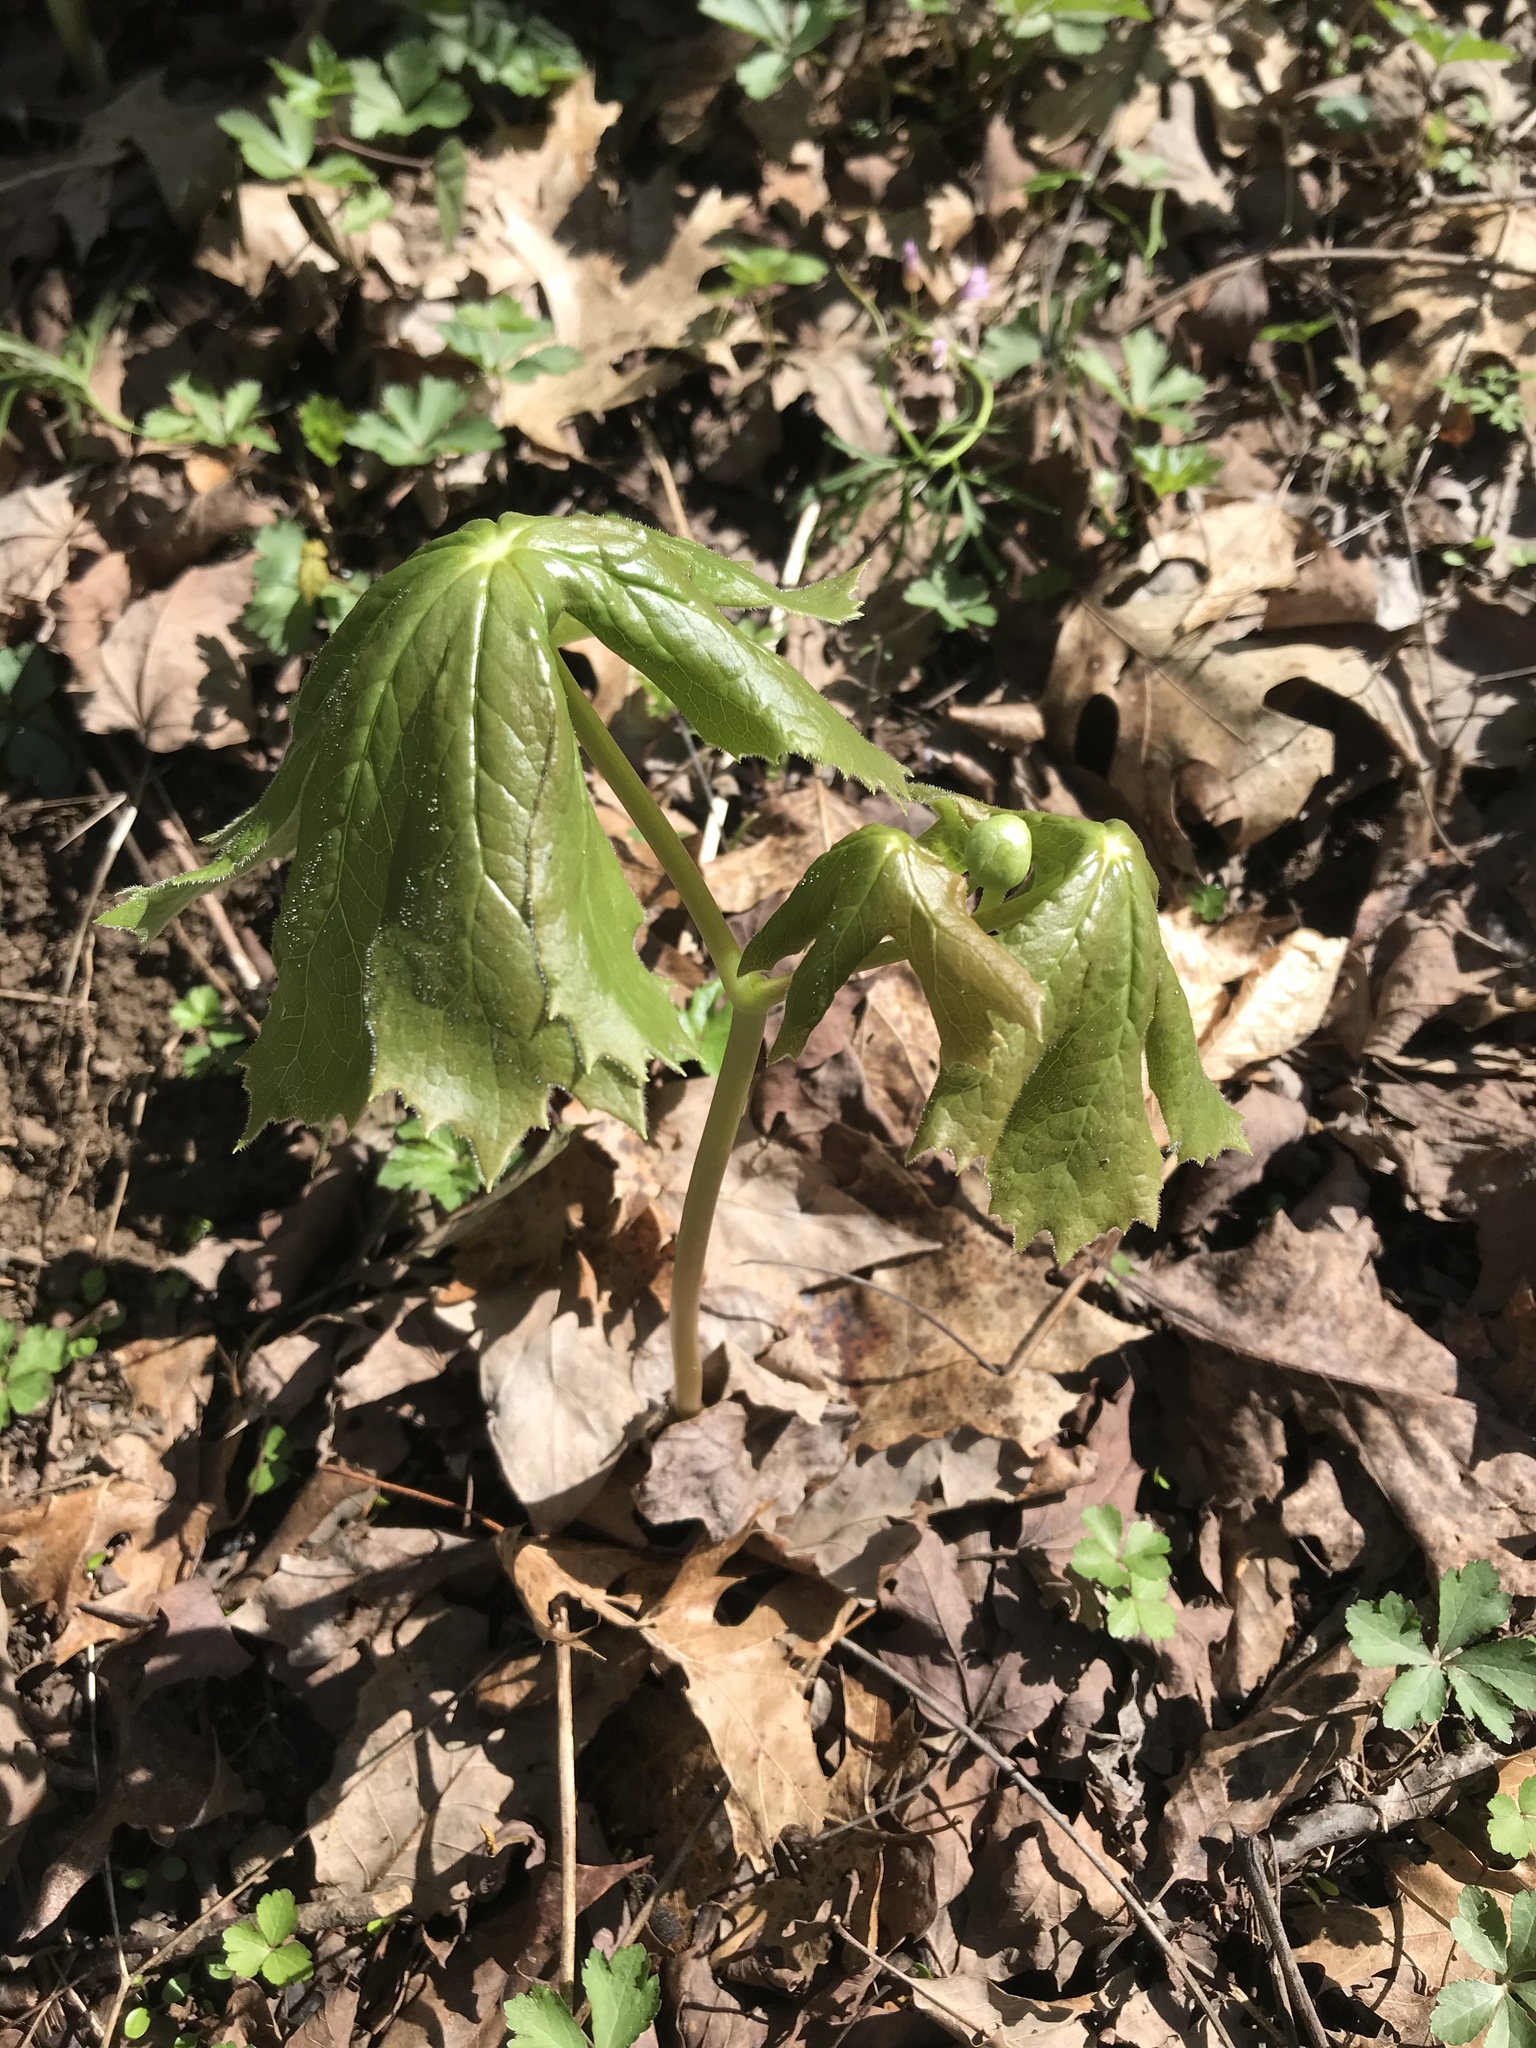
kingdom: Plantae
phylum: Tracheophyta
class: Magnoliopsida
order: Ranunculales
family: Berberidaceae
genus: Podophyllum
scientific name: Podophyllum peltatum
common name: Wild mandrake
